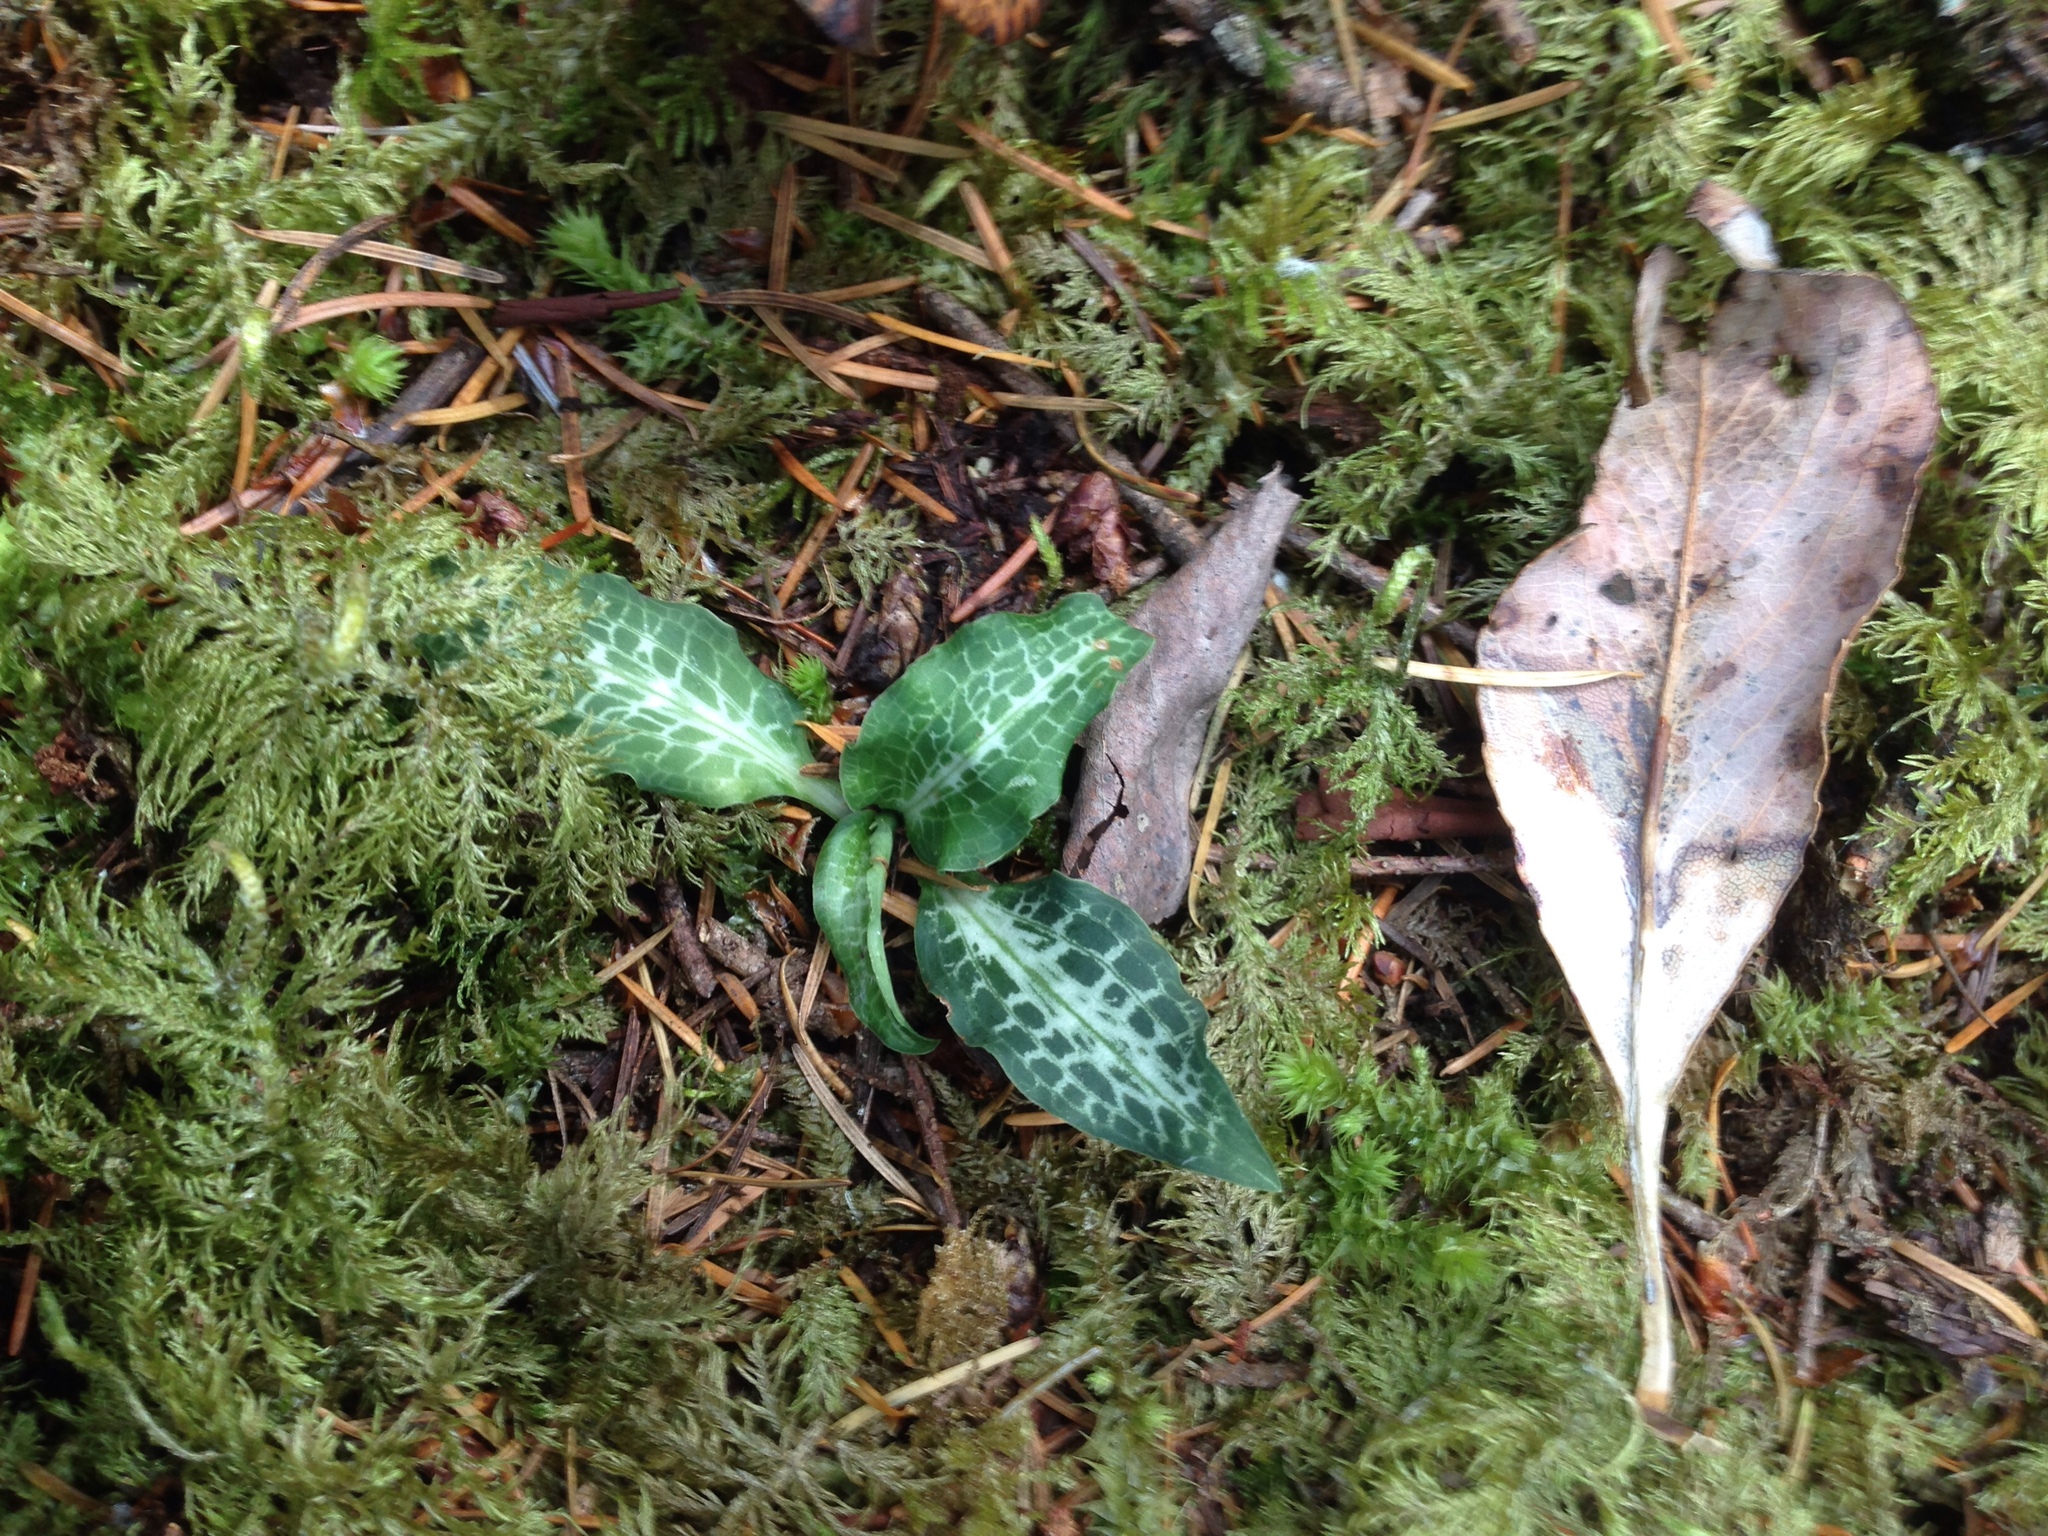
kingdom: Plantae
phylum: Tracheophyta
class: Liliopsida
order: Asparagales
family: Orchidaceae
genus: Goodyera
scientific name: Goodyera oblongifolia
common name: Giant rattlesnake-plantain
